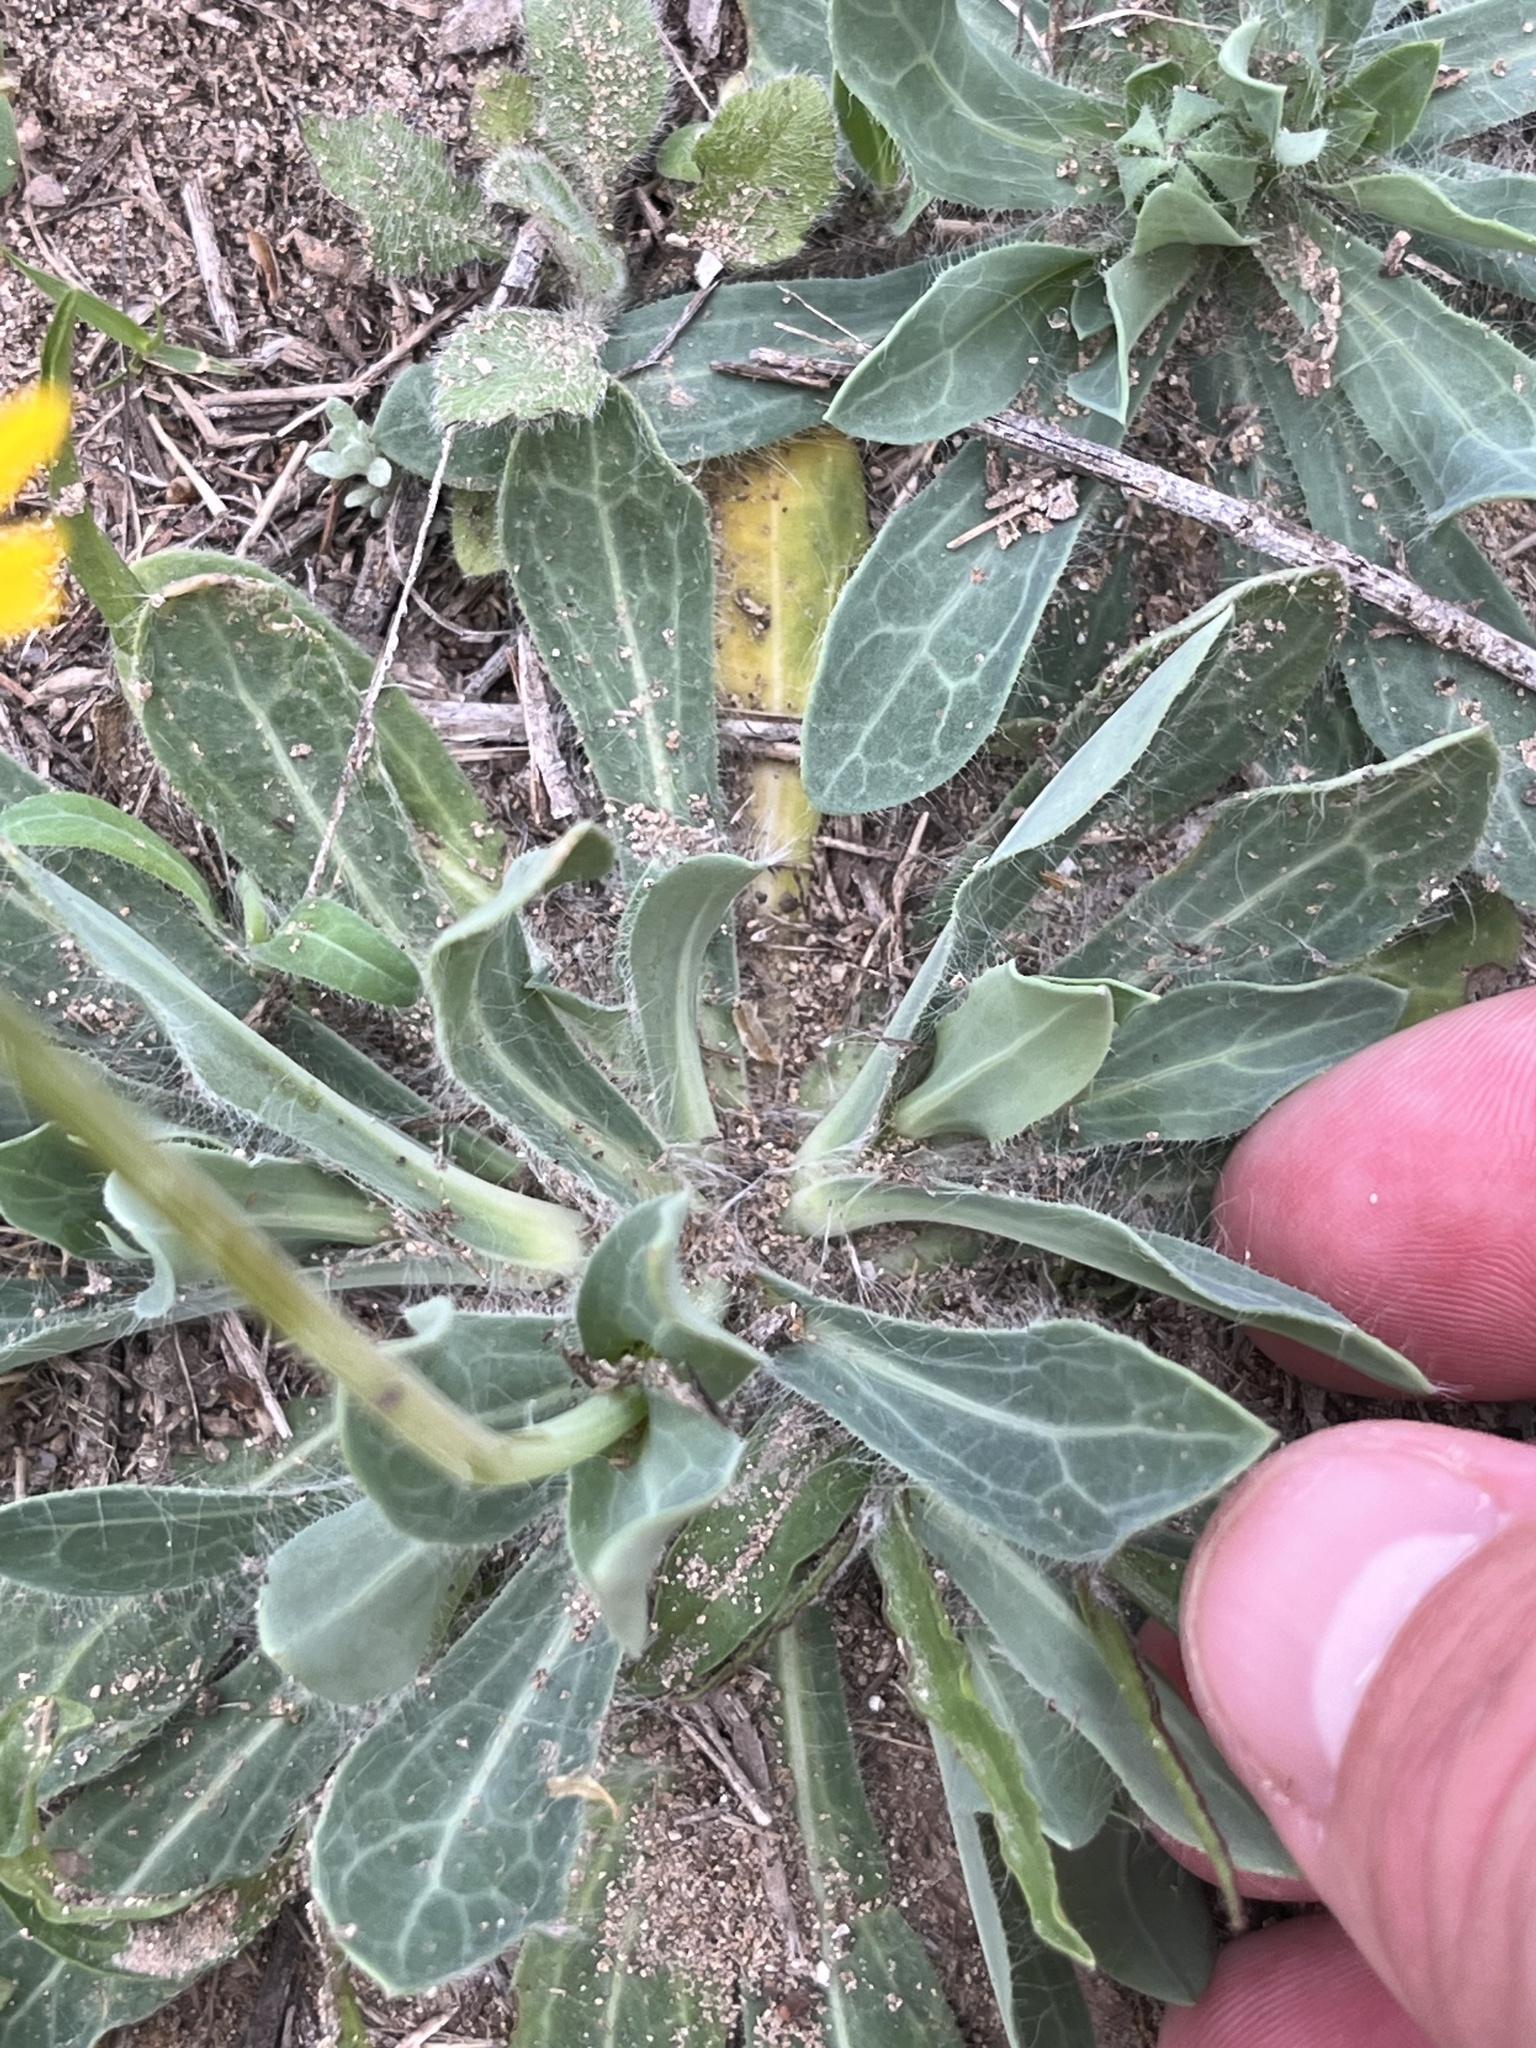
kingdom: Plantae
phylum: Tracheophyta
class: Magnoliopsida
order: Asterales
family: Asteraceae
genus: Amblyolepis
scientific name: Amblyolepis setigera
